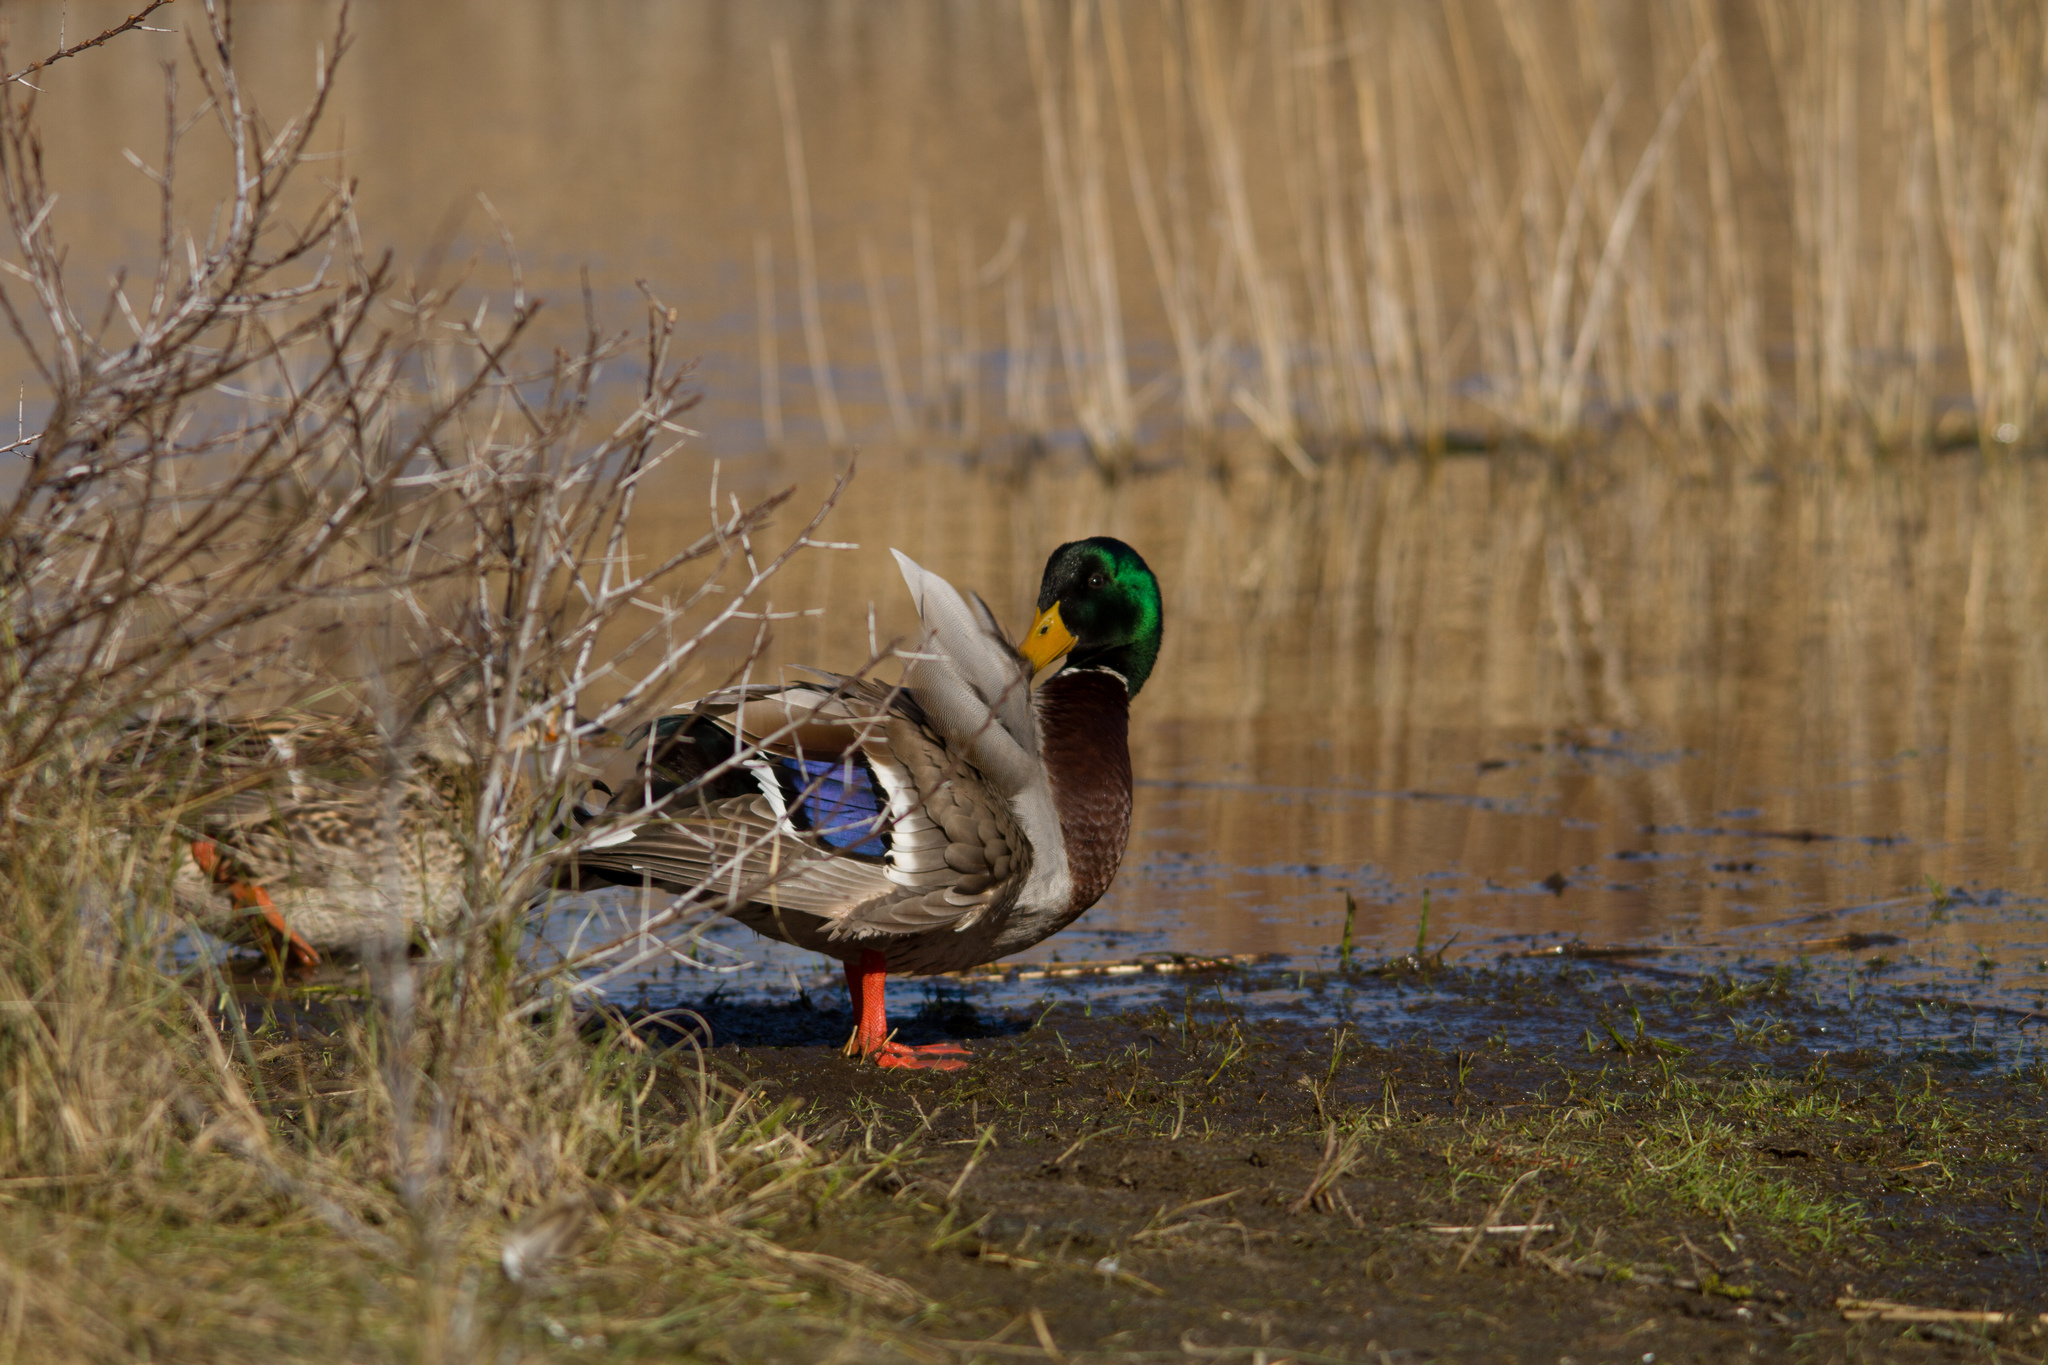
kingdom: Animalia
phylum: Chordata
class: Aves
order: Anseriformes
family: Anatidae
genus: Anas
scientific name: Anas platyrhynchos
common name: Mallard
